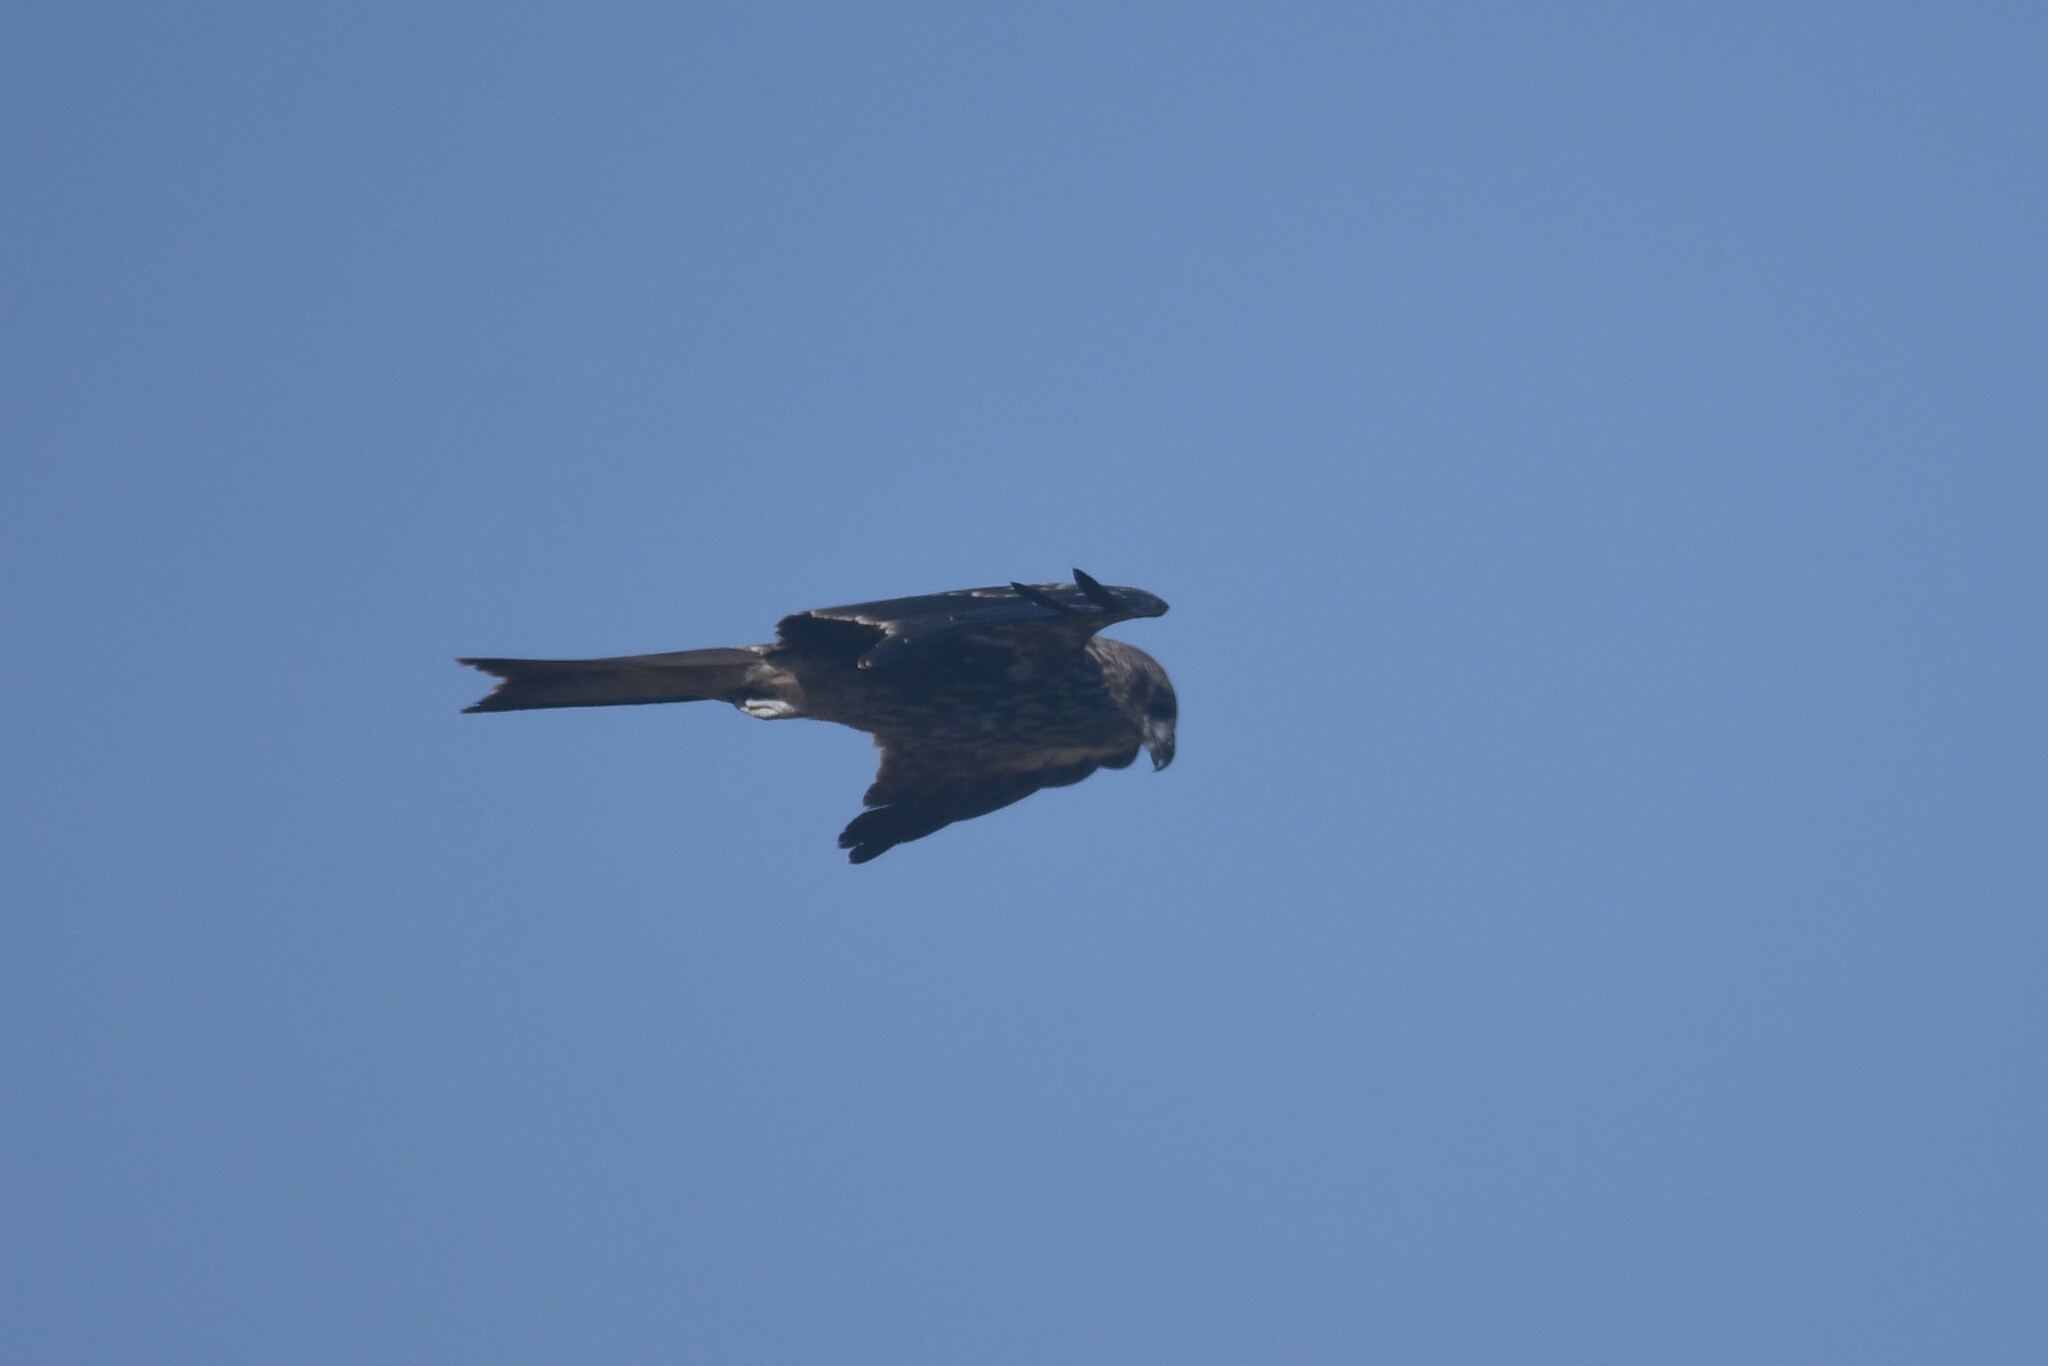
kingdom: Animalia
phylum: Chordata
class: Aves
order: Accipitriformes
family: Accipitridae
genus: Milvus
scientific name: Milvus migrans
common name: Black kite
